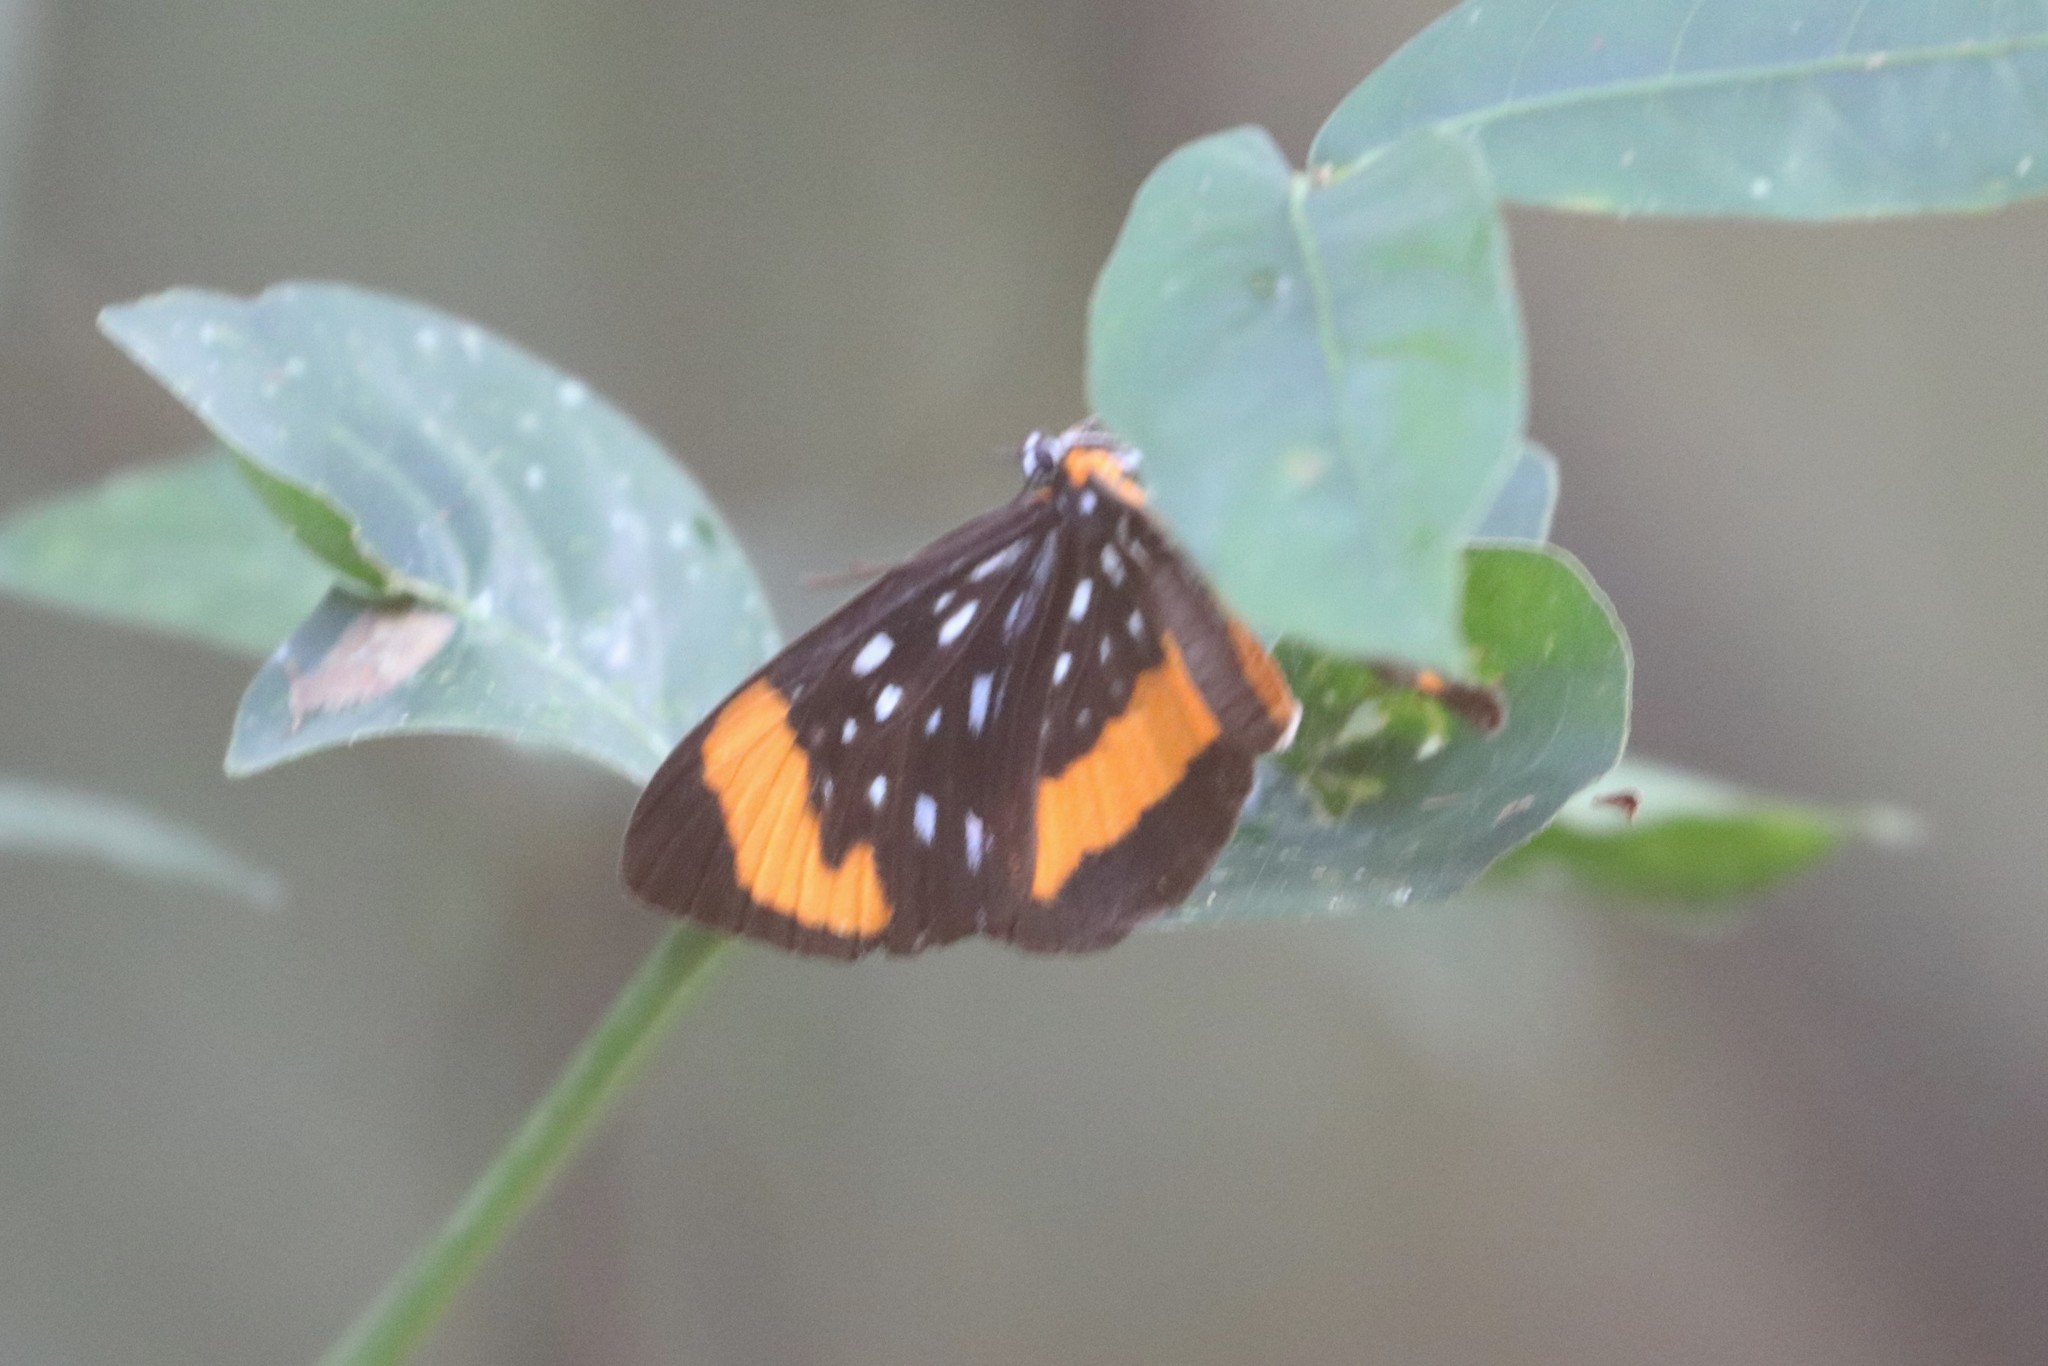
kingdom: Animalia
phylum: Arthropoda
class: Insecta
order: Lepidoptera
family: Riodinidae
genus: Stalachtis
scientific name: Stalachtis euterpe
